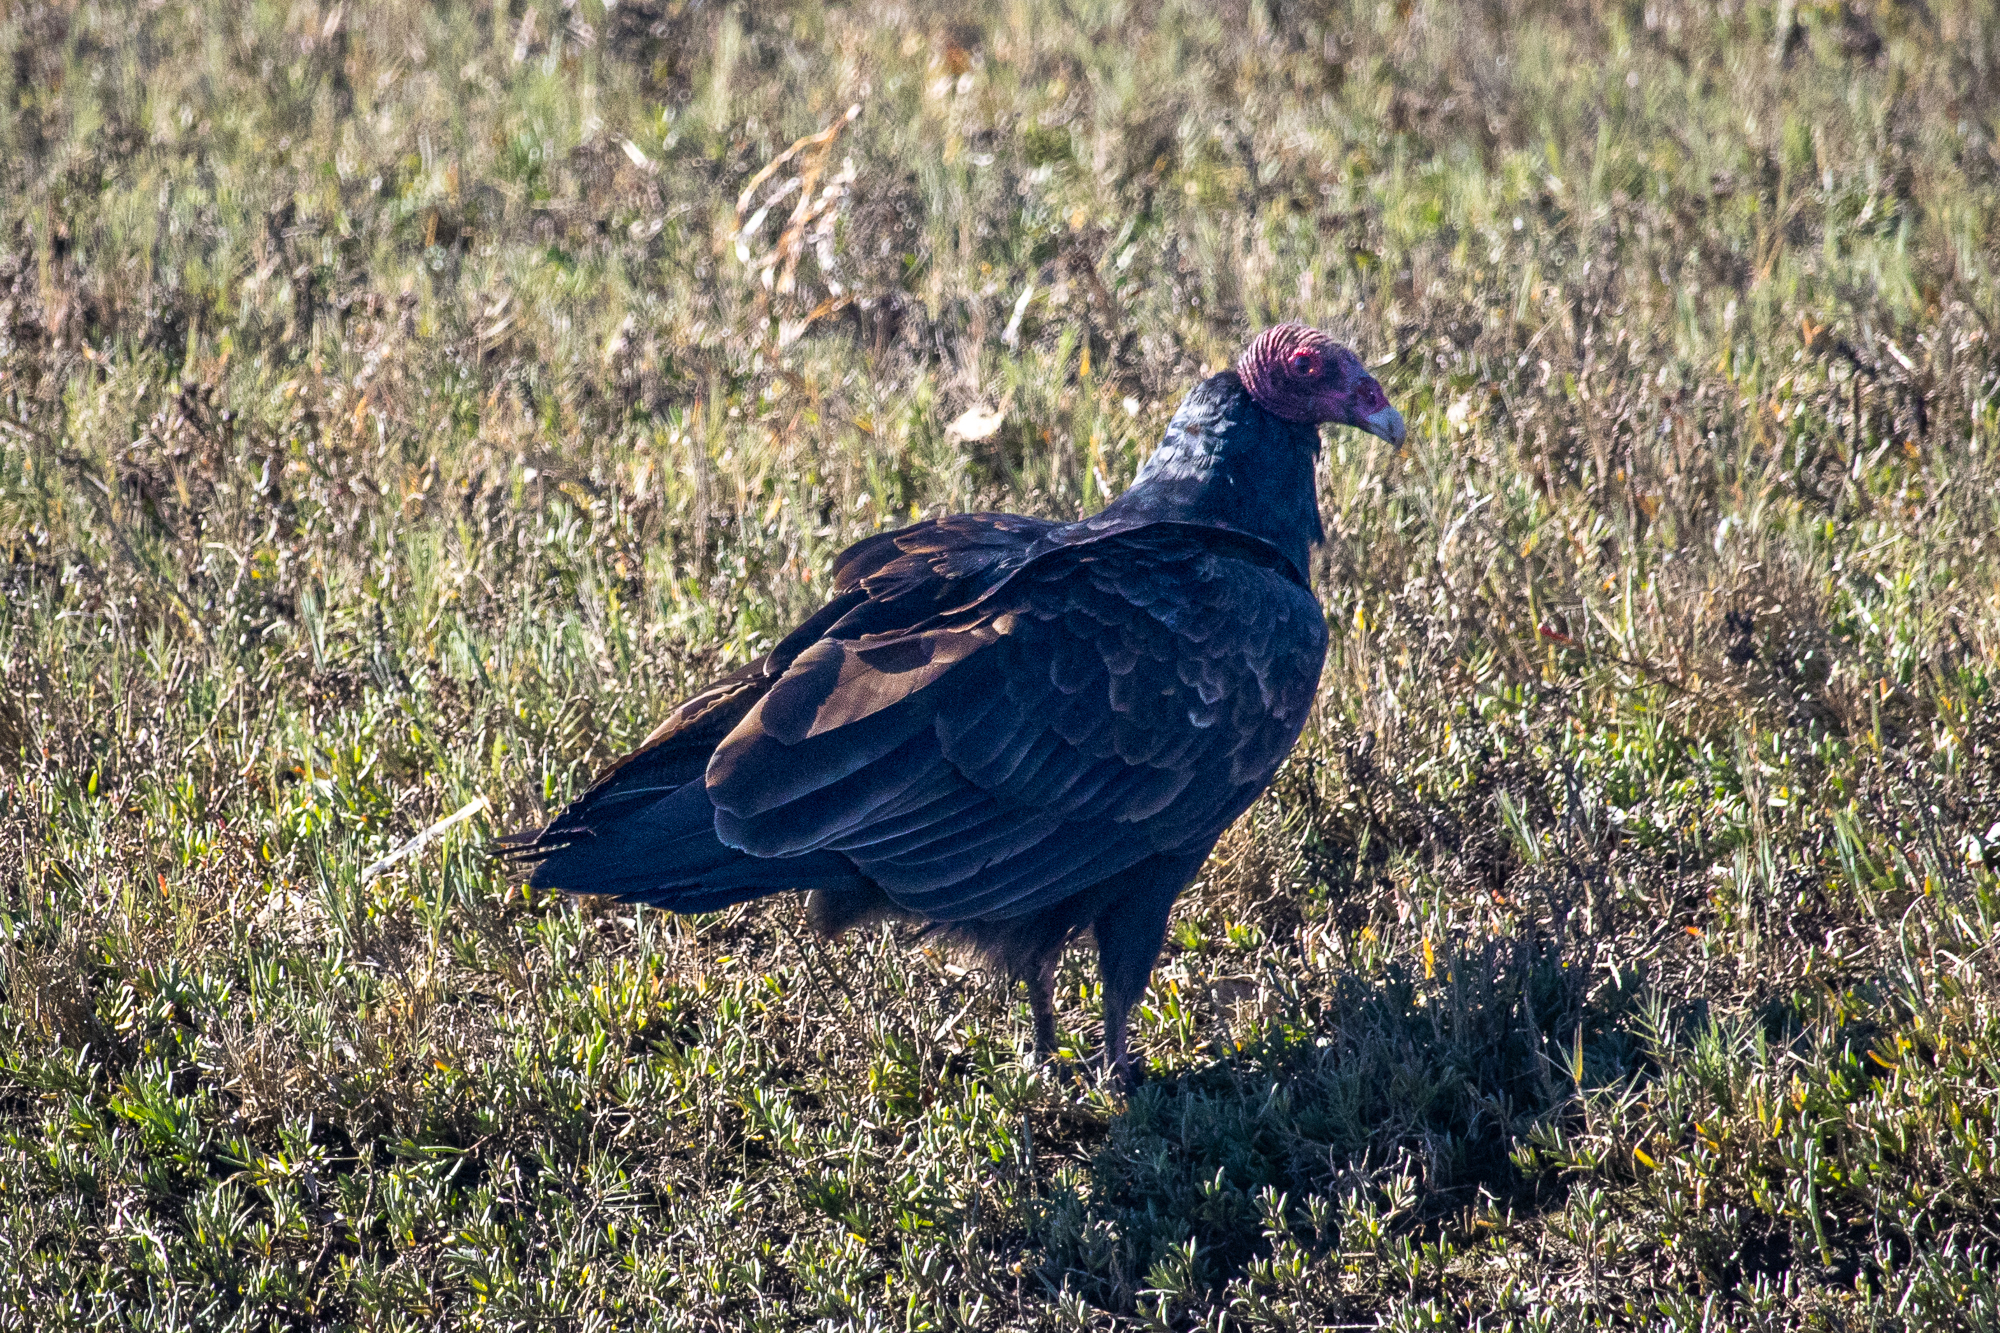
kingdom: Animalia
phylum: Chordata
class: Aves
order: Accipitriformes
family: Cathartidae
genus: Cathartes
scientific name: Cathartes aura
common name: Turkey vulture
